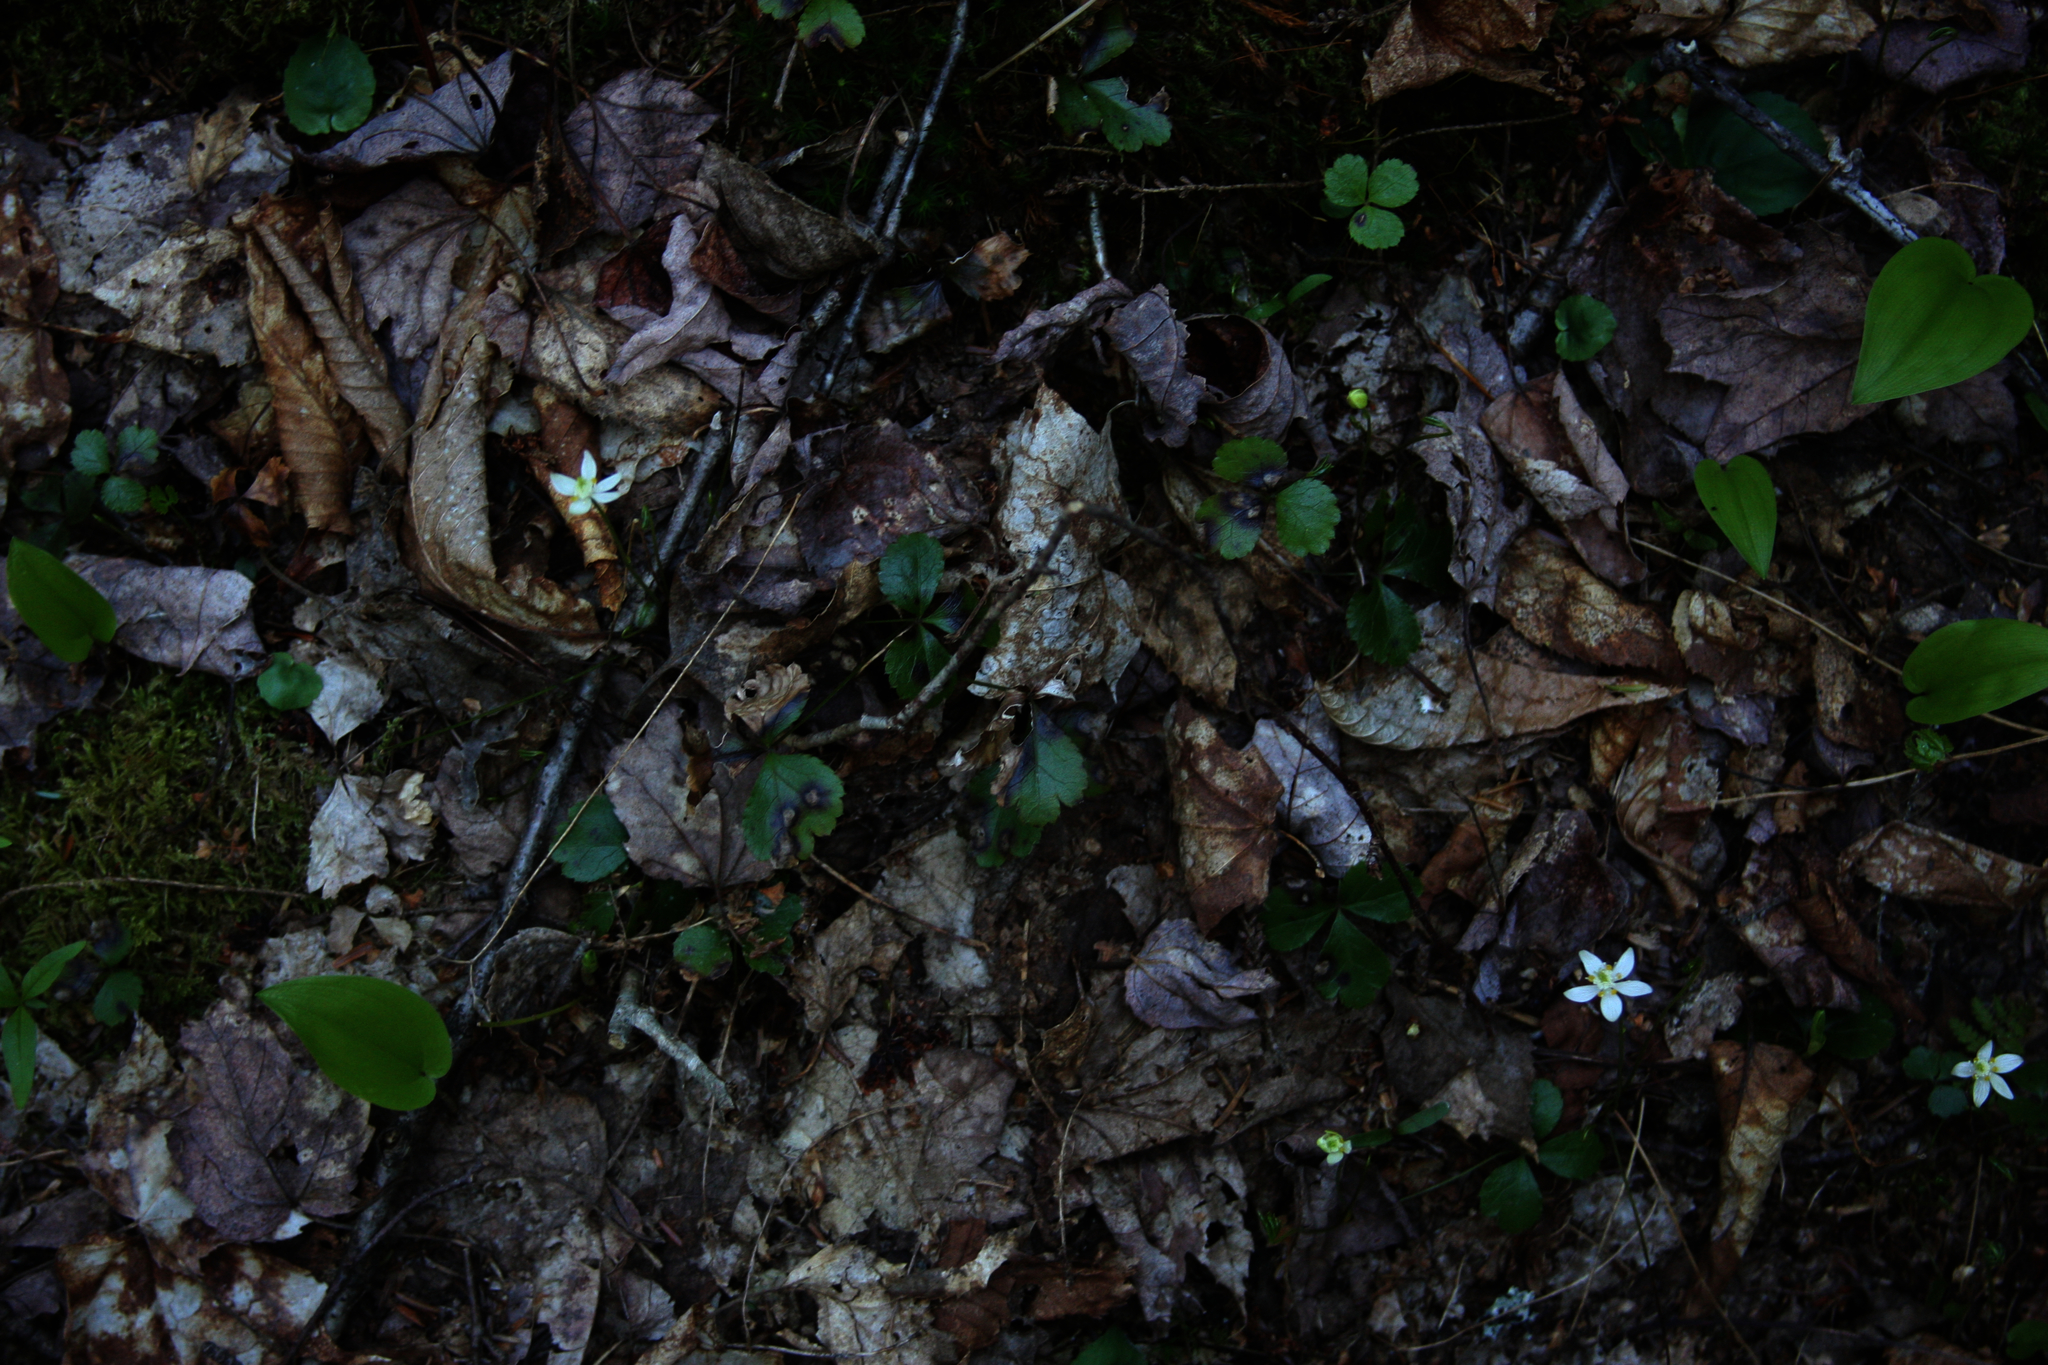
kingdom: Plantae
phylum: Tracheophyta
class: Liliopsida
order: Asparagales
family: Asparagaceae
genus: Maianthemum
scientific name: Maianthemum canadense
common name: False lily-of-the-valley
